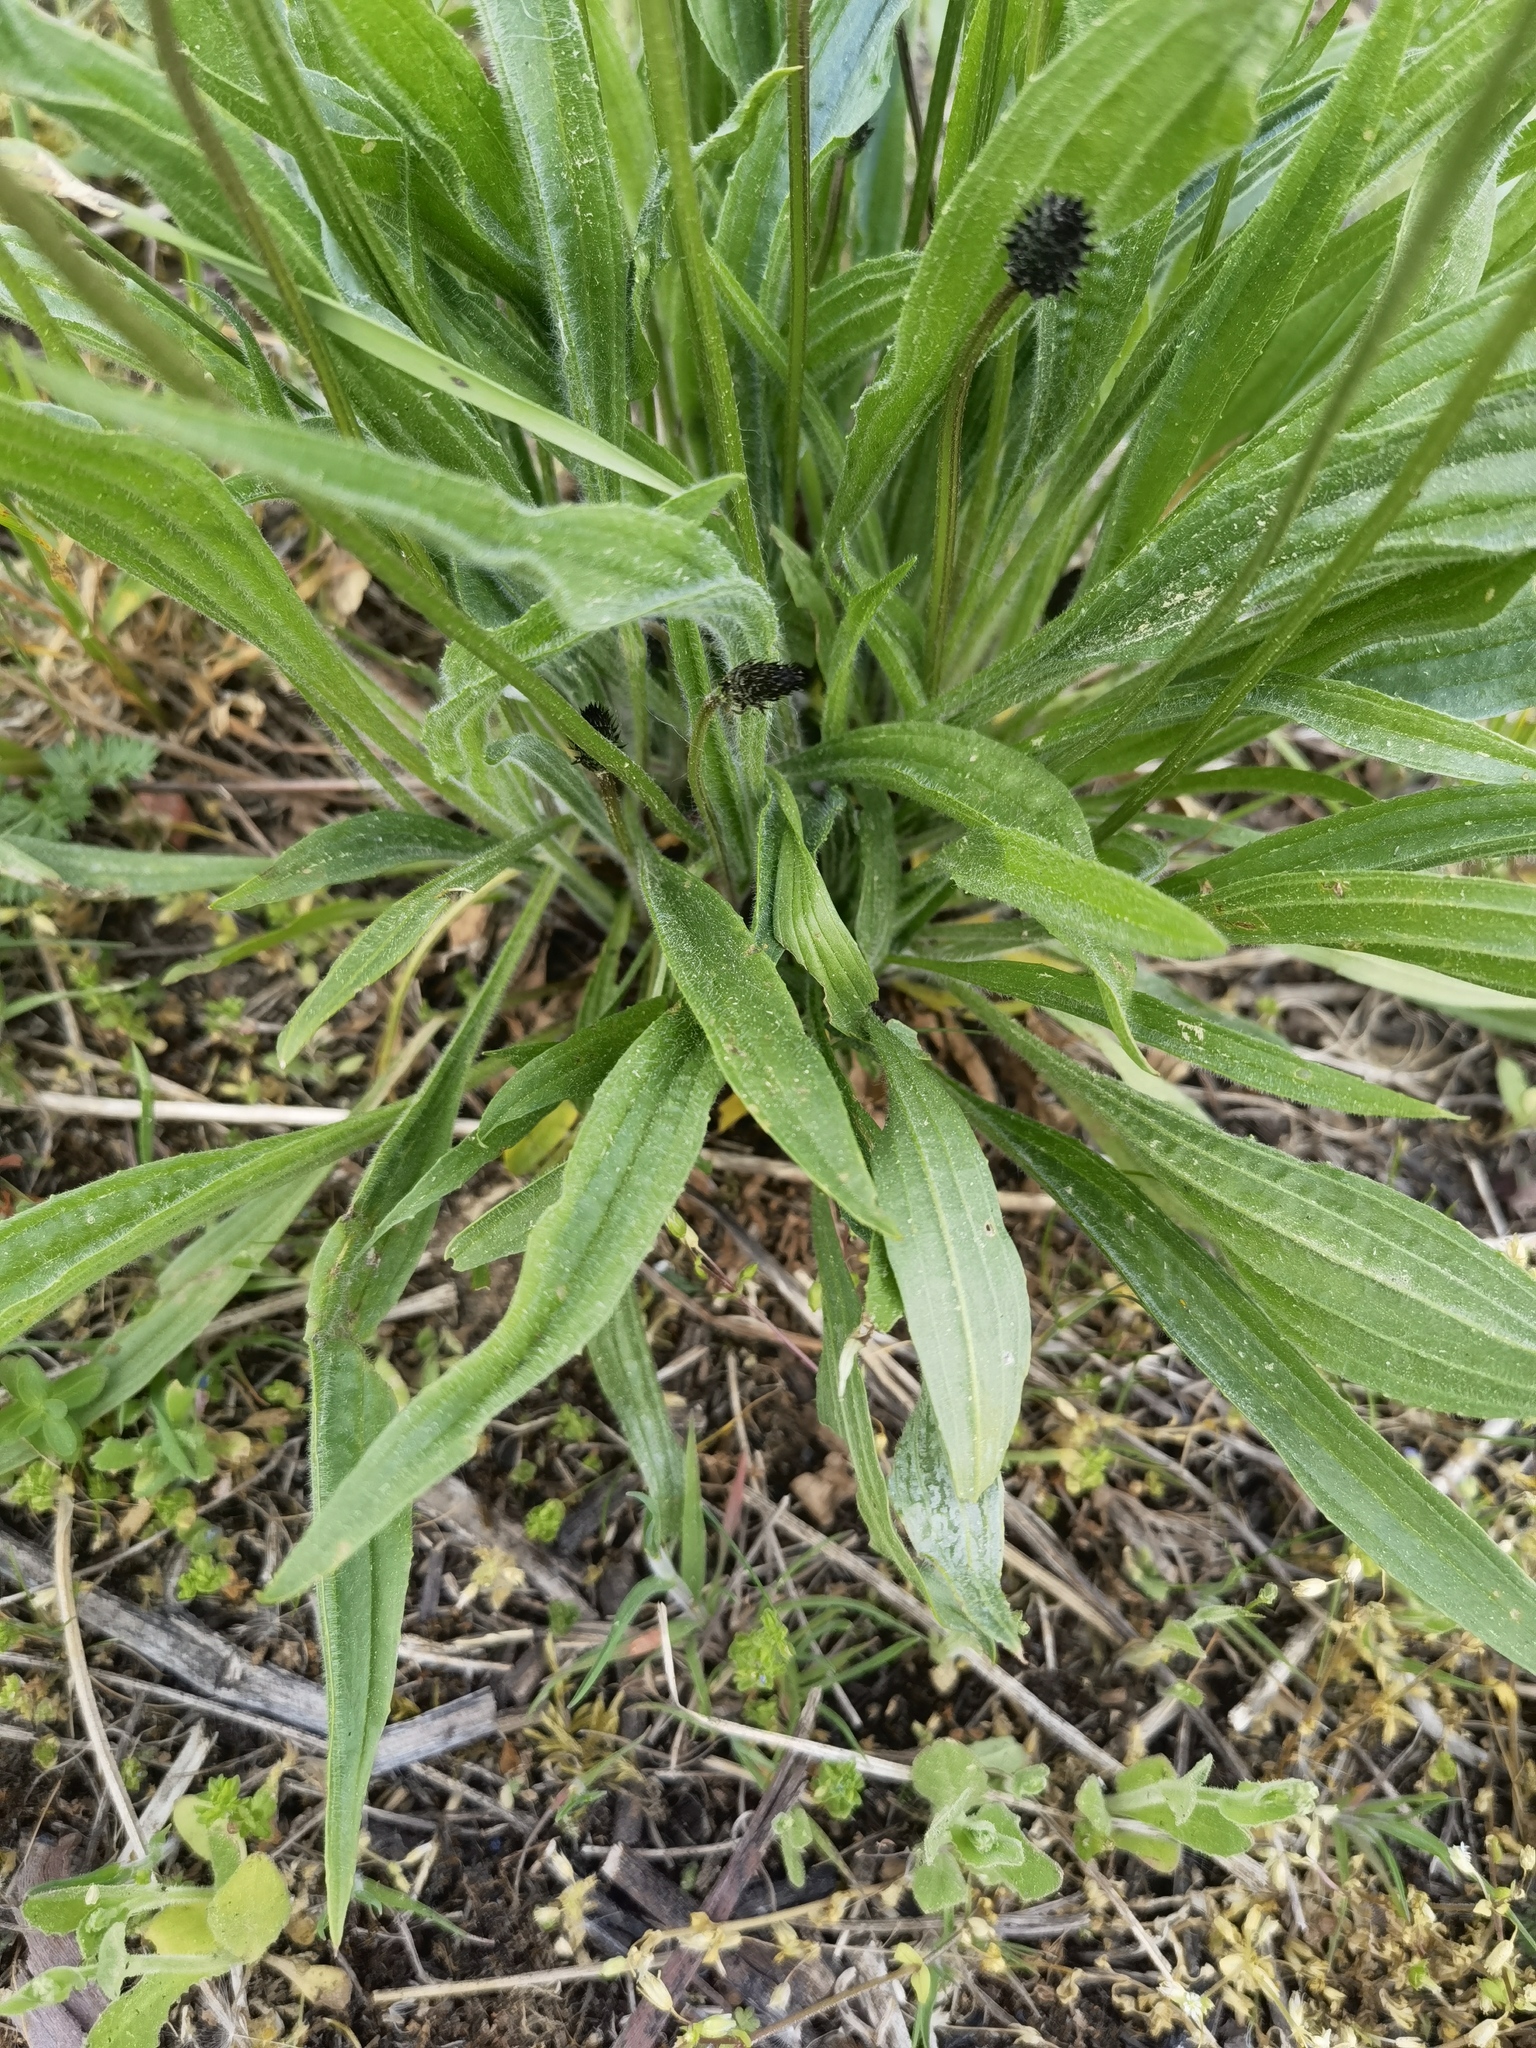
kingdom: Plantae
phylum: Tracheophyta
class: Magnoliopsida
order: Lamiales
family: Plantaginaceae
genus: Plantago
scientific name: Plantago lanceolata
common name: Ribwort plantain
